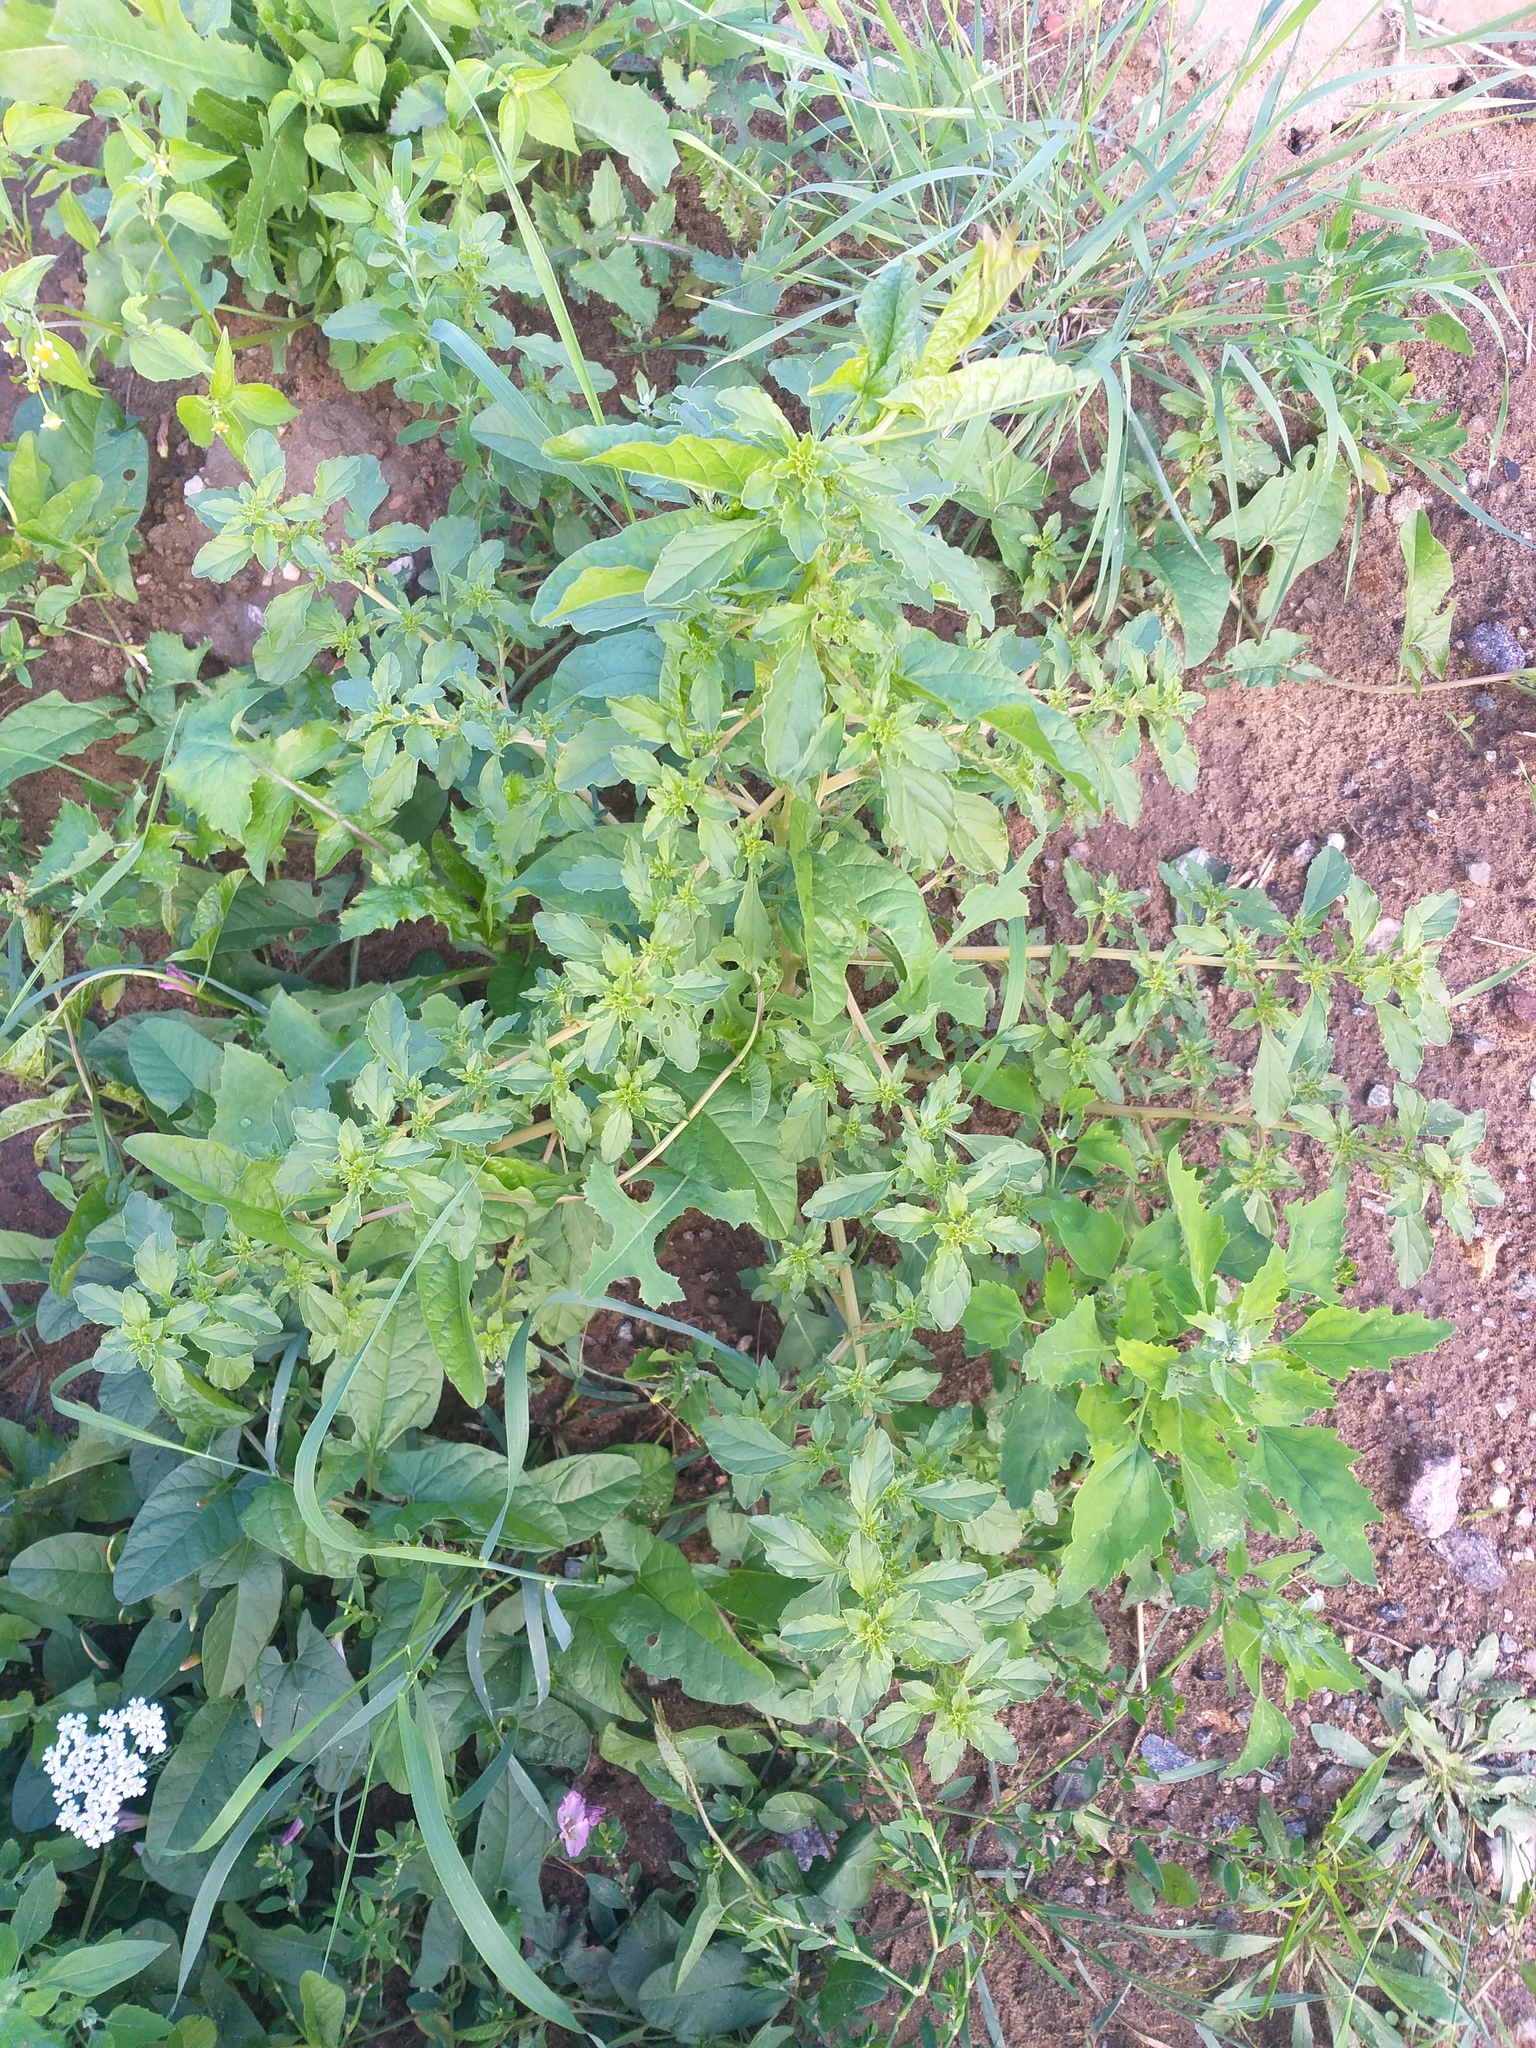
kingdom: Plantae
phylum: Tracheophyta
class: Magnoliopsida
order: Caryophyllales
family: Amaranthaceae
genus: Amaranthus
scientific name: Amaranthus albus
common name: White pigweed
